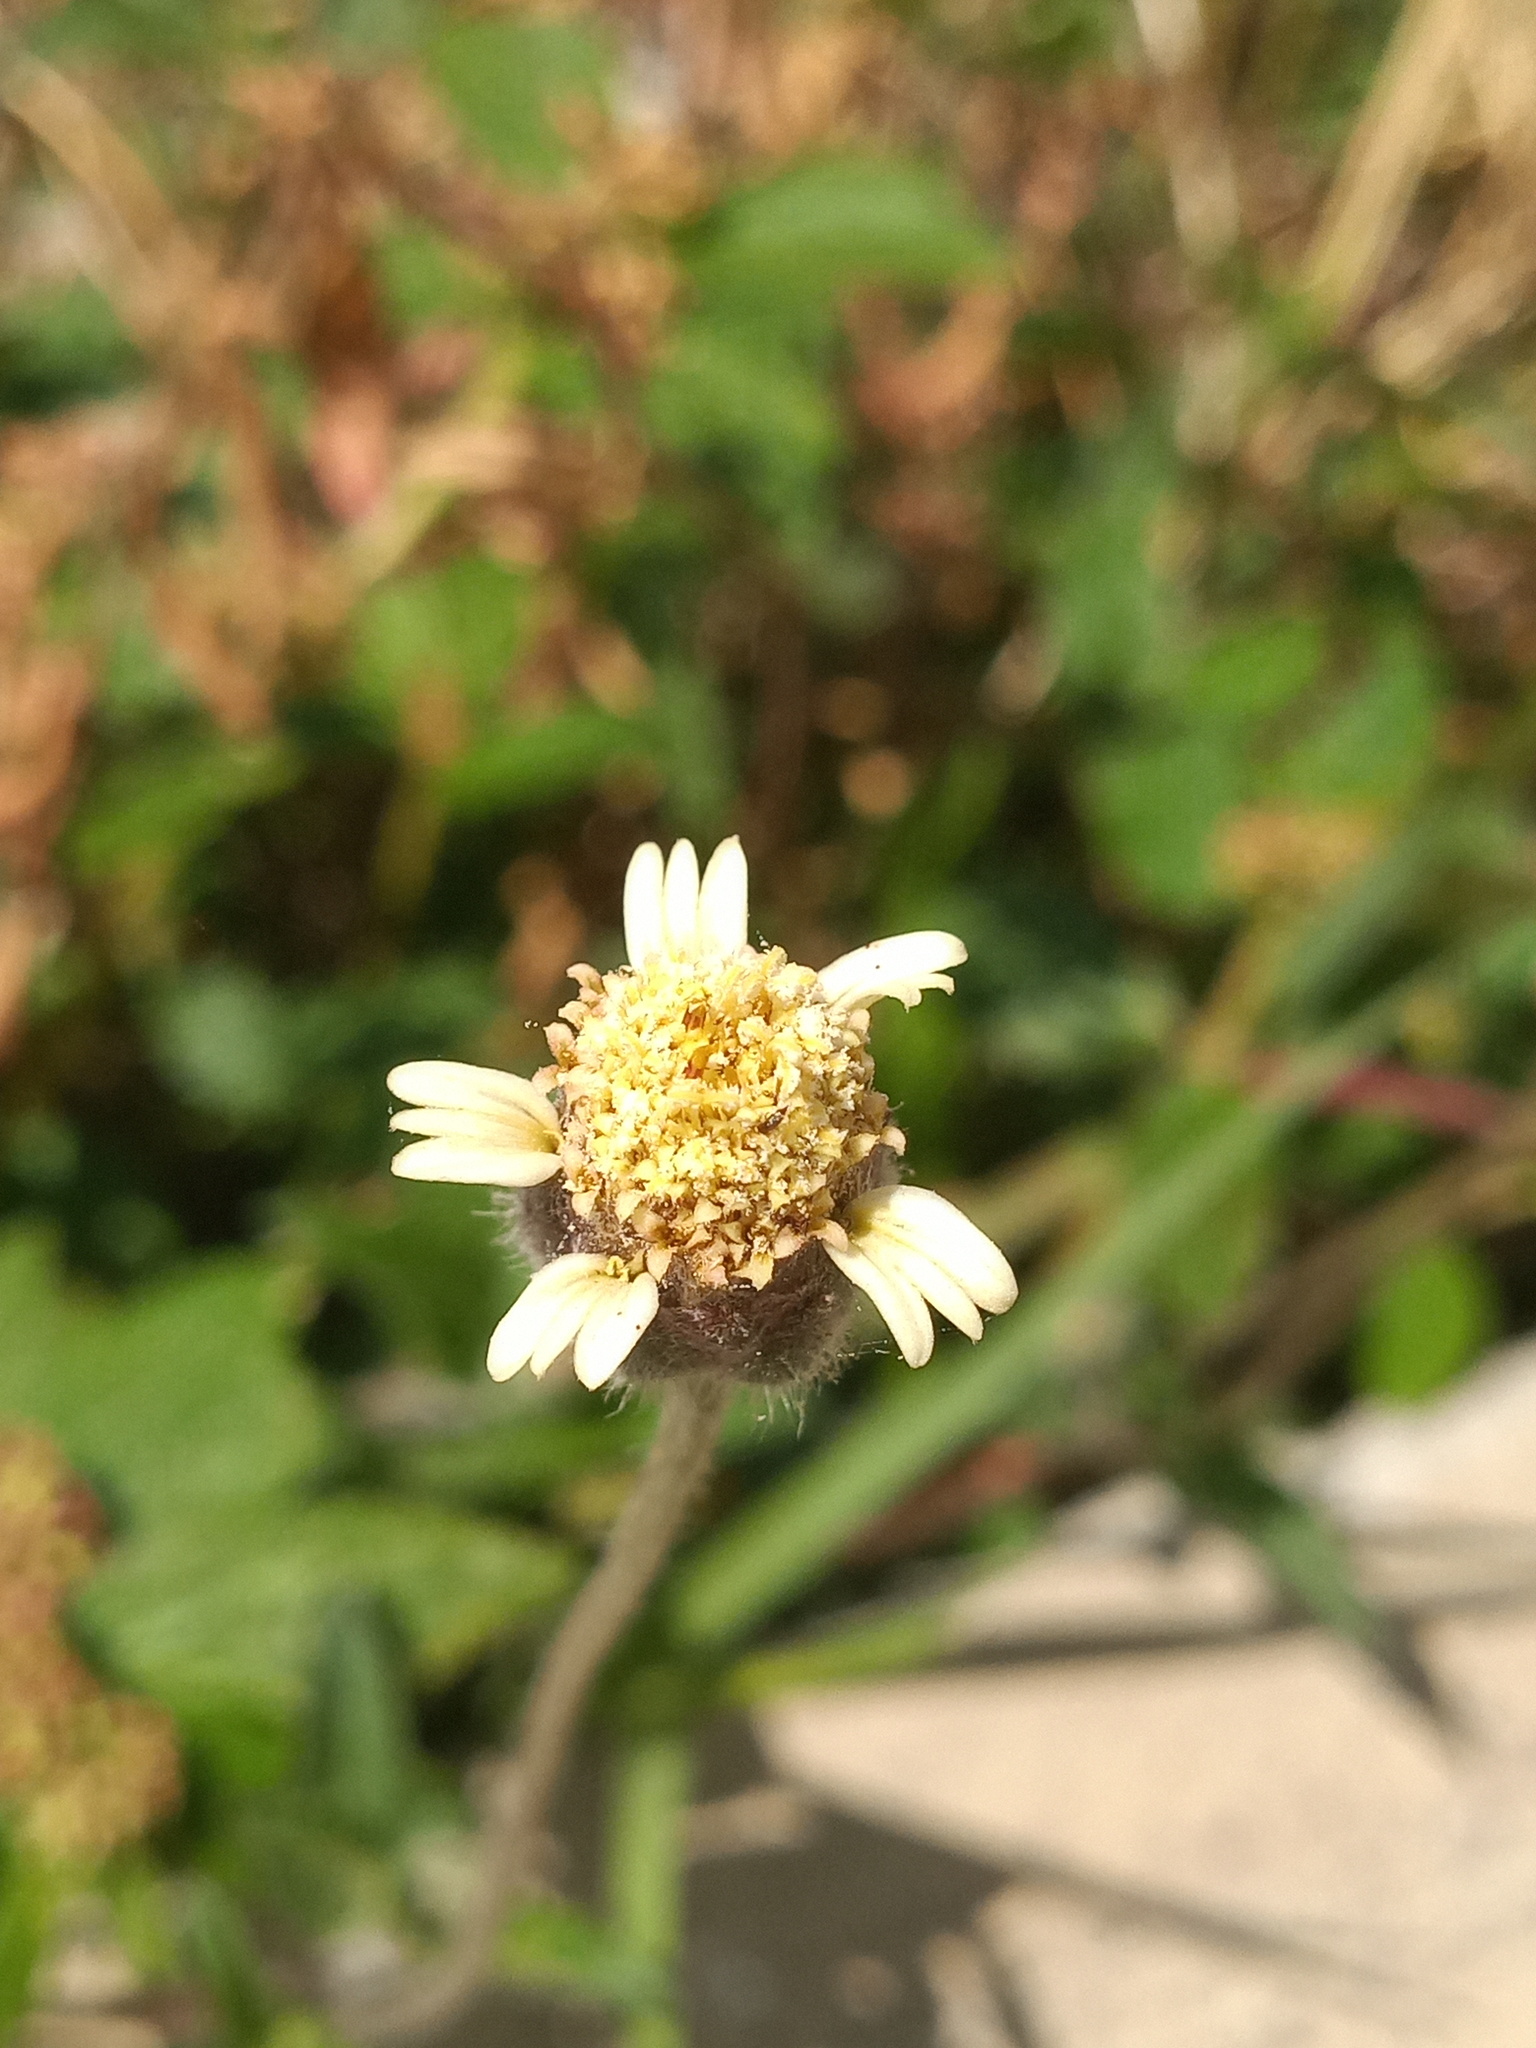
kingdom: Plantae
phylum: Tracheophyta
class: Magnoliopsida
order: Asterales
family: Asteraceae
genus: Tridax
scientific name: Tridax procumbens
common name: Coatbuttons
